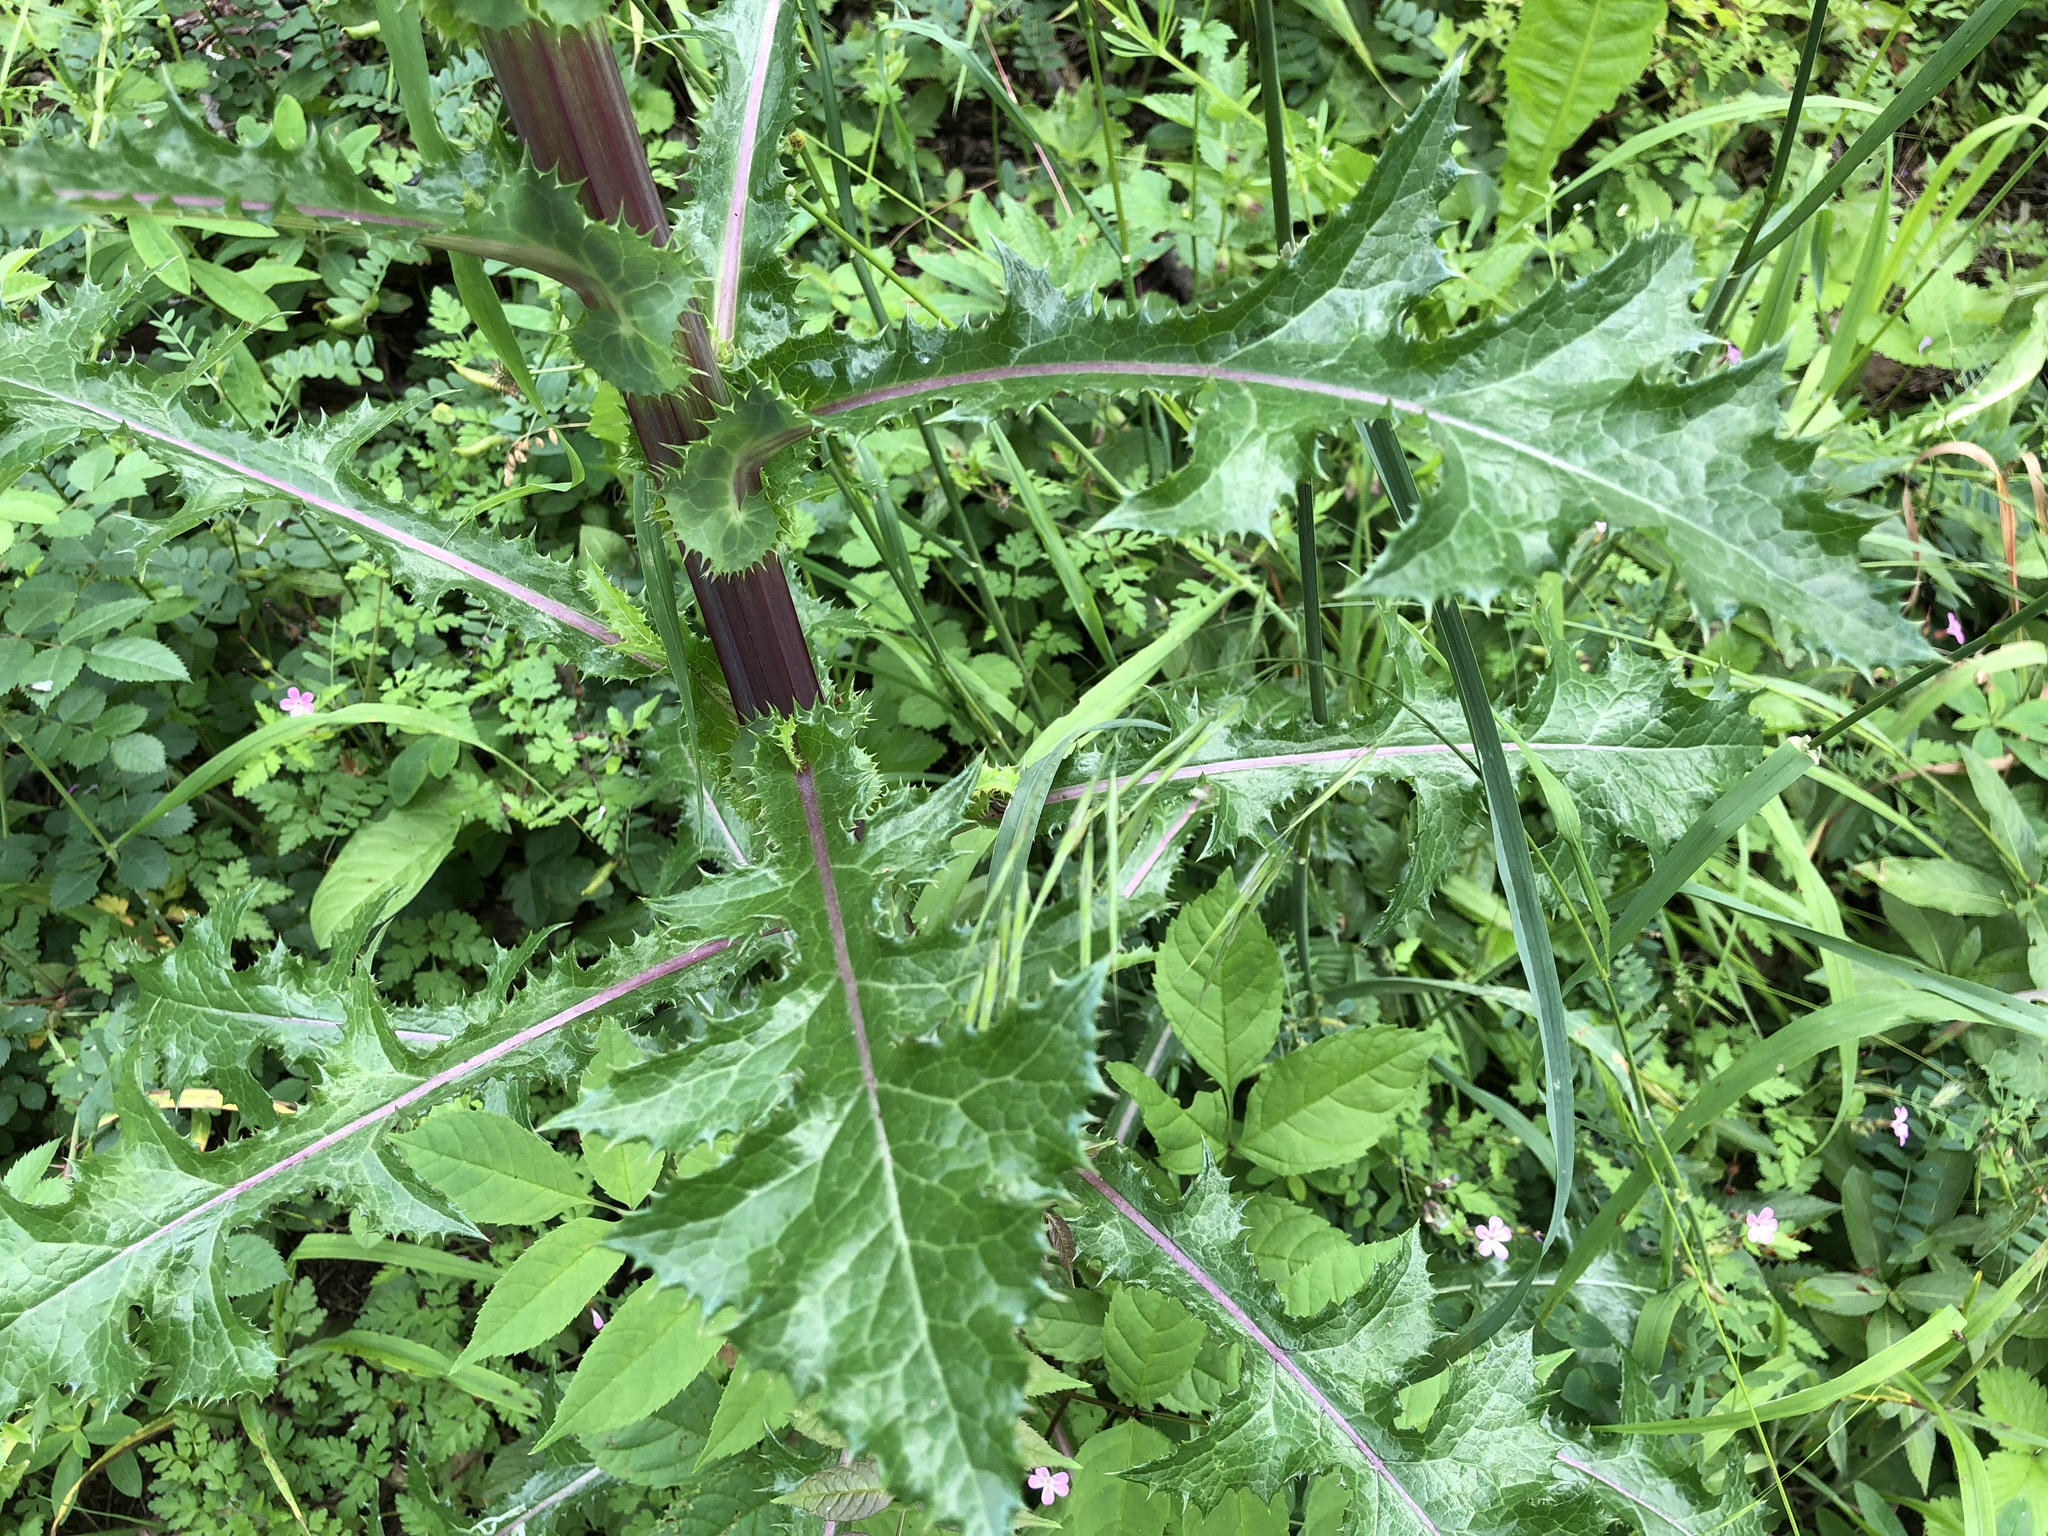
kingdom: Plantae
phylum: Tracheophyta
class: Magnoliopsida
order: Asterales
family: Asteraceae
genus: Sonchus
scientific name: Sonchus asper
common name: Prickly sow-thistle
